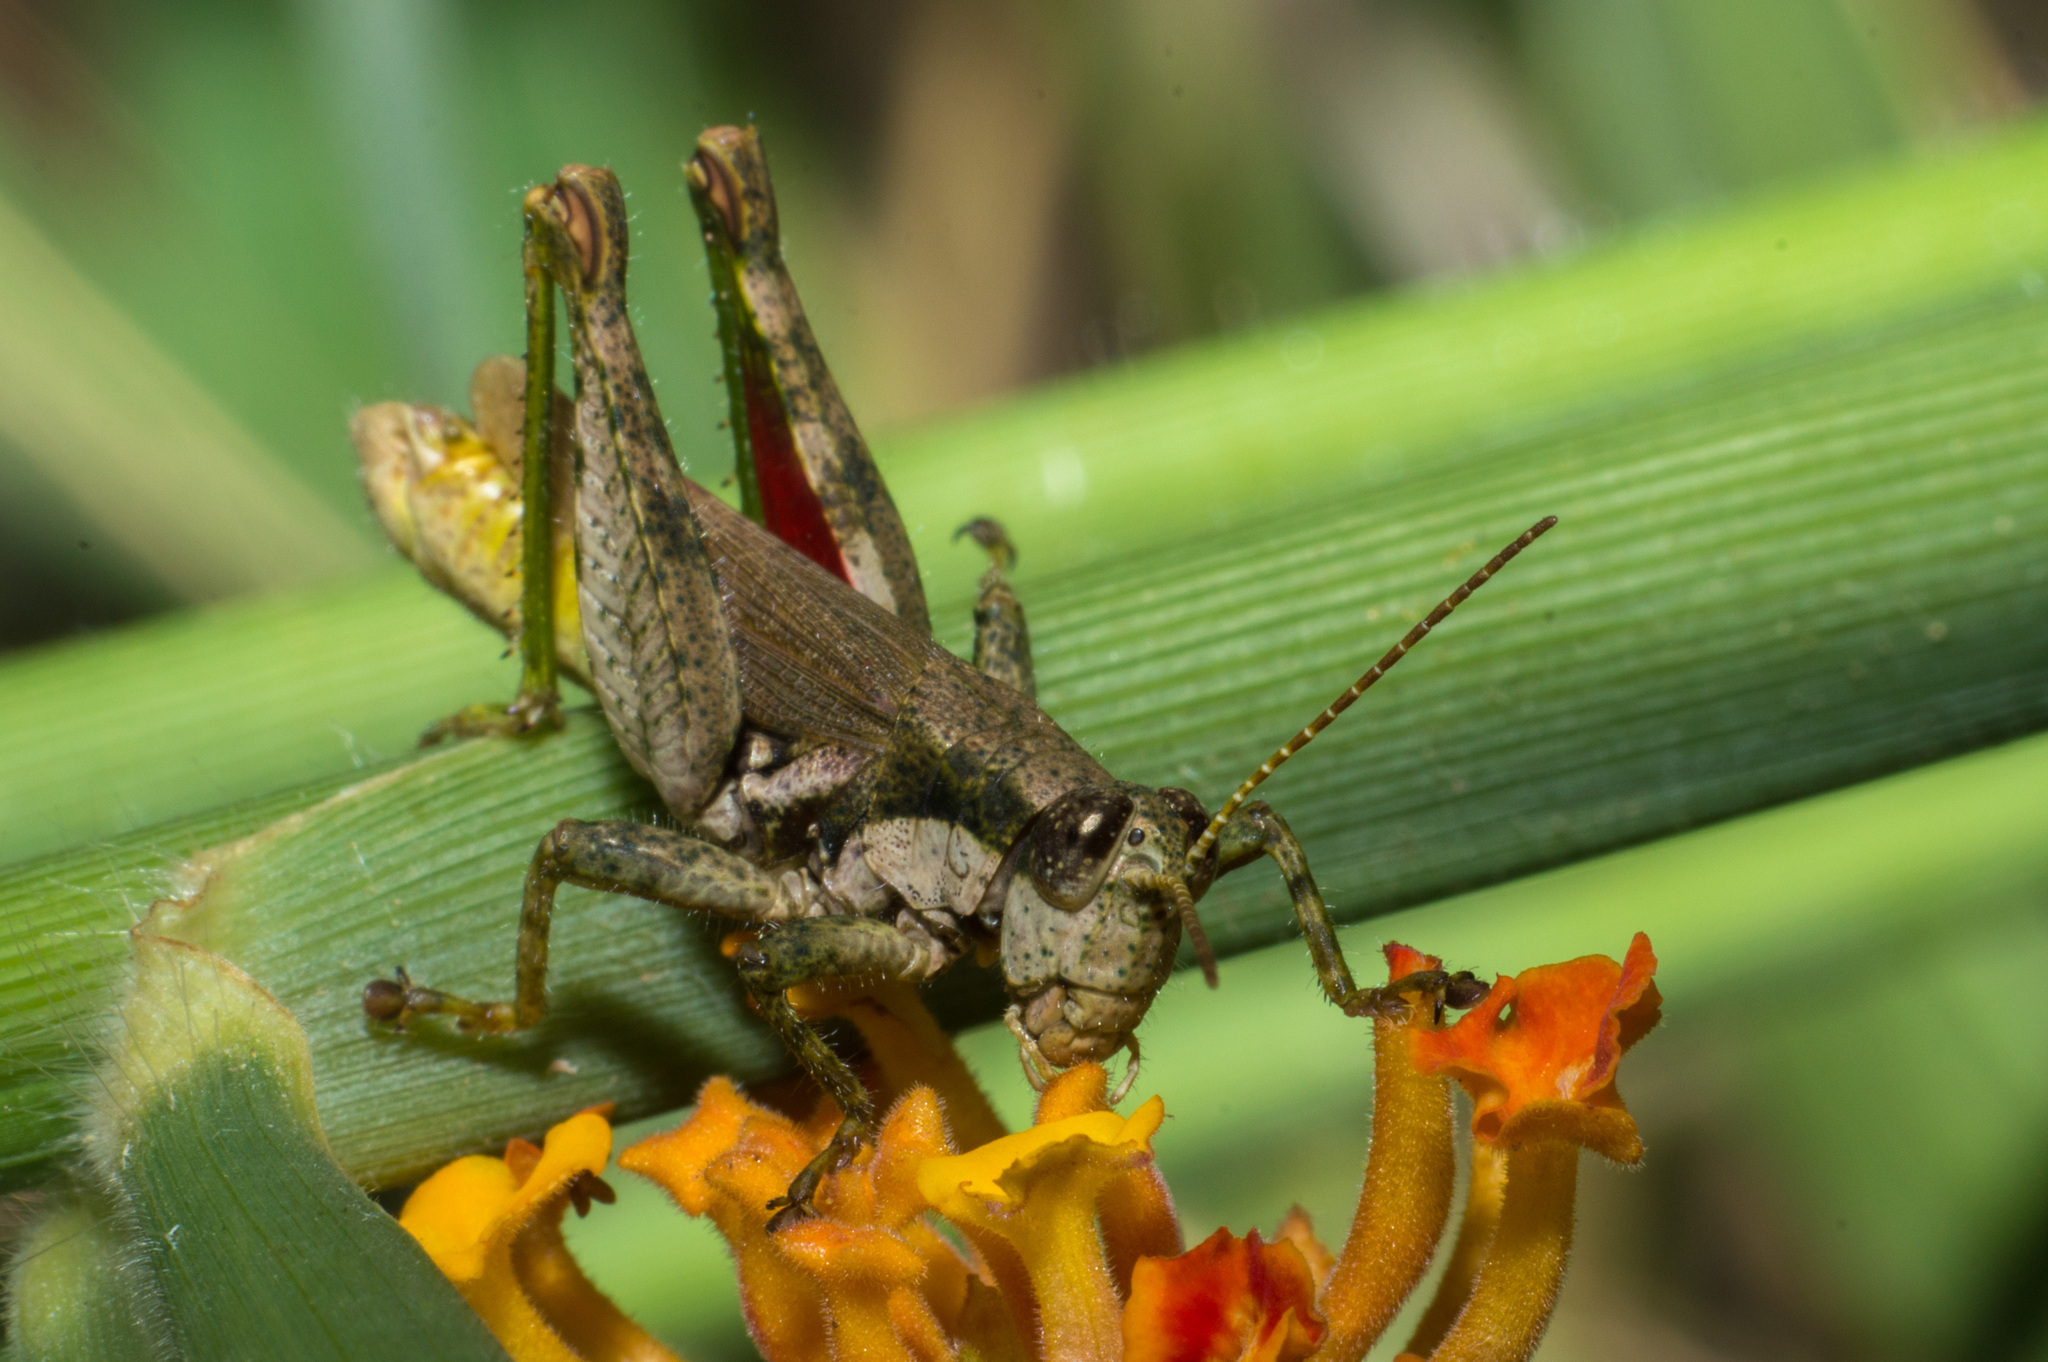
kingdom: Animalia
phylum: Arthropoda
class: Insecta
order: Orthoptera
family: Acrididae
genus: Ronderosia
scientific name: Ronderosia bergii
